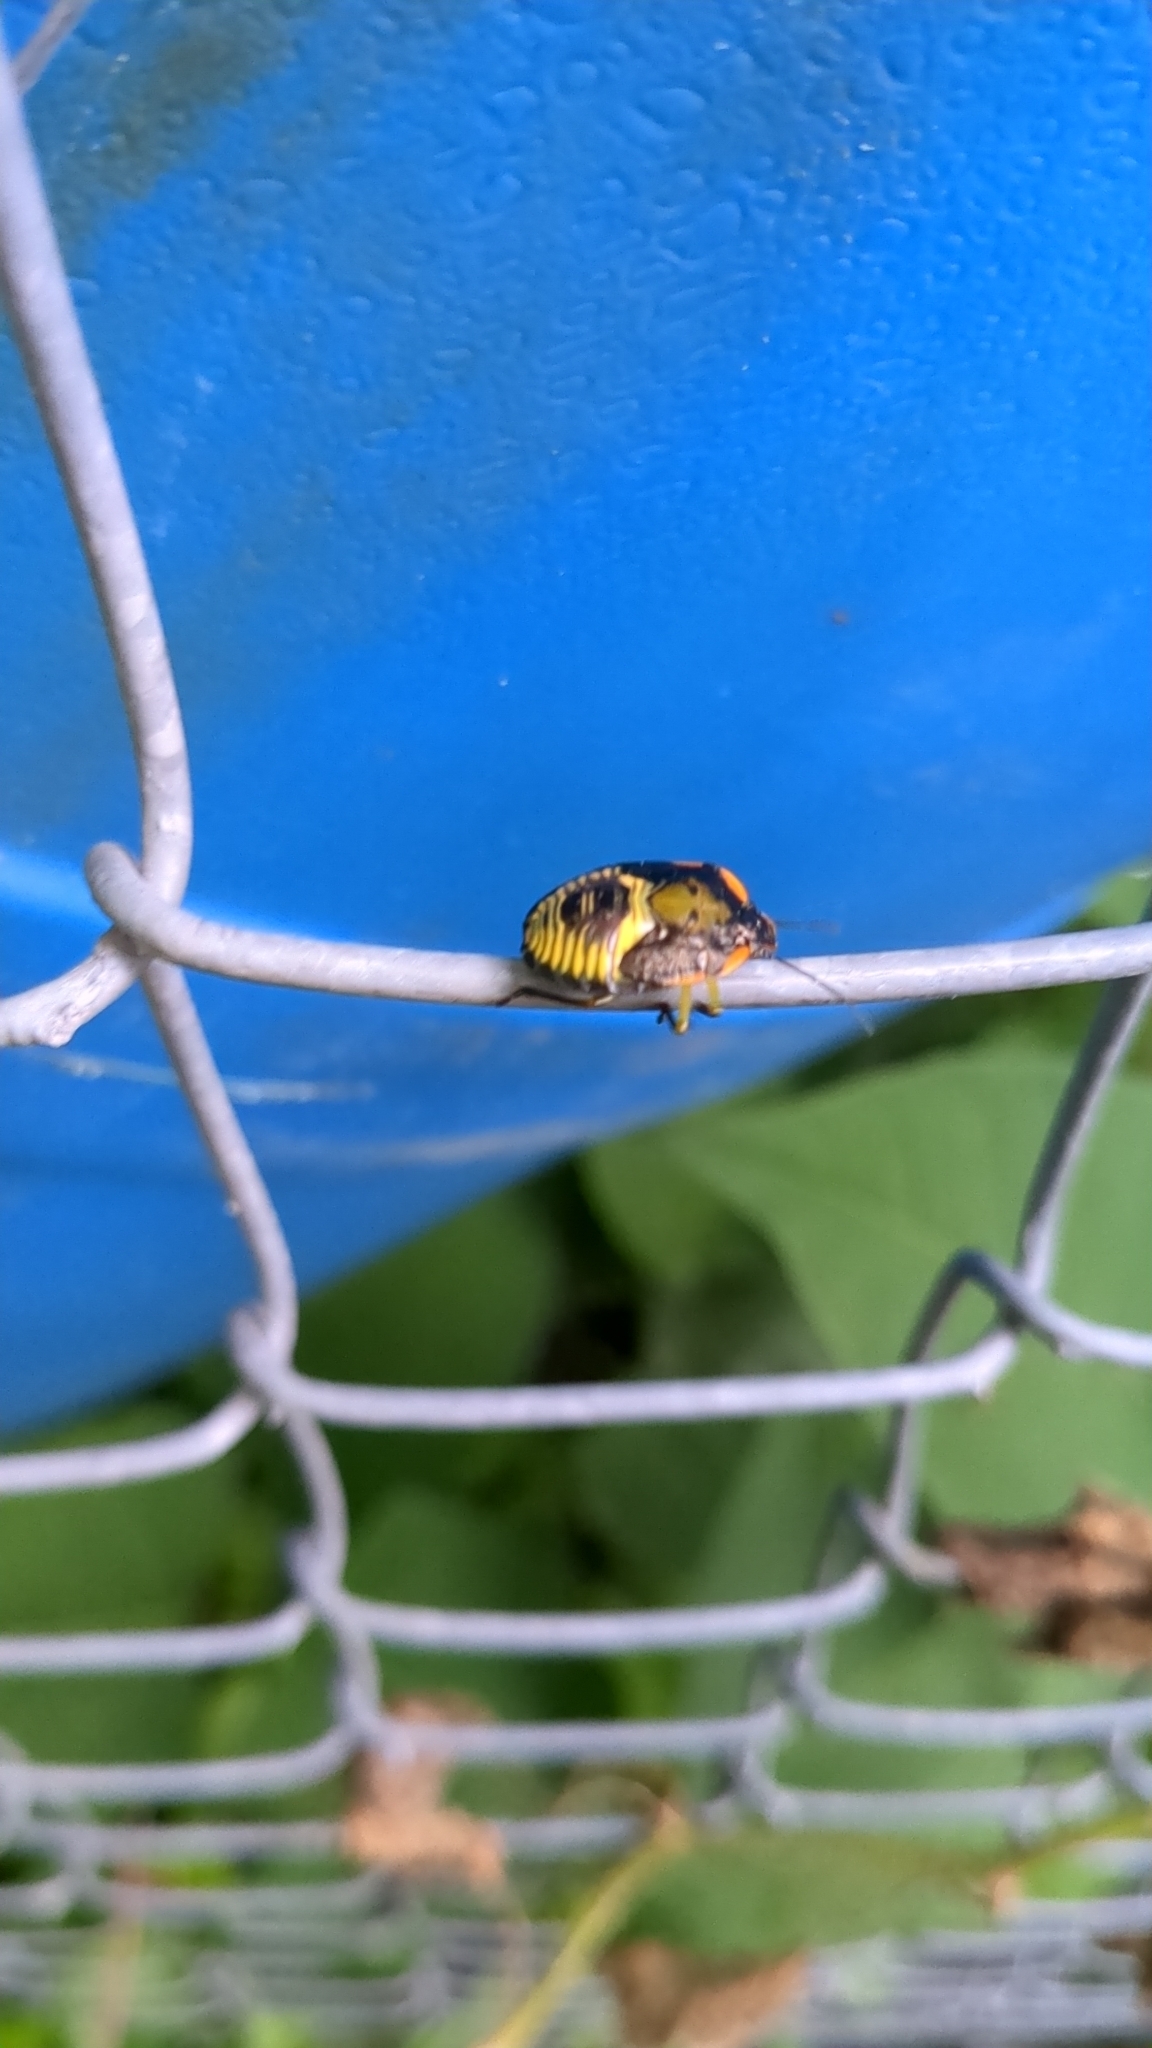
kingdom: Animalia
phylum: Arthropoda
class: Insecta
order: Hemiptera
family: Pentatomidae
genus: Chinavia
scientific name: Chinavia hilaris
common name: Green stink bug
